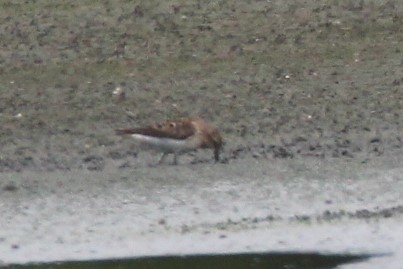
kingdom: Animalia
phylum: Chordata
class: Aves
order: Charadriiformes
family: Scolopacidae
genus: Calidris
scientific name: Calidris minutilla
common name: Least sandpiper
